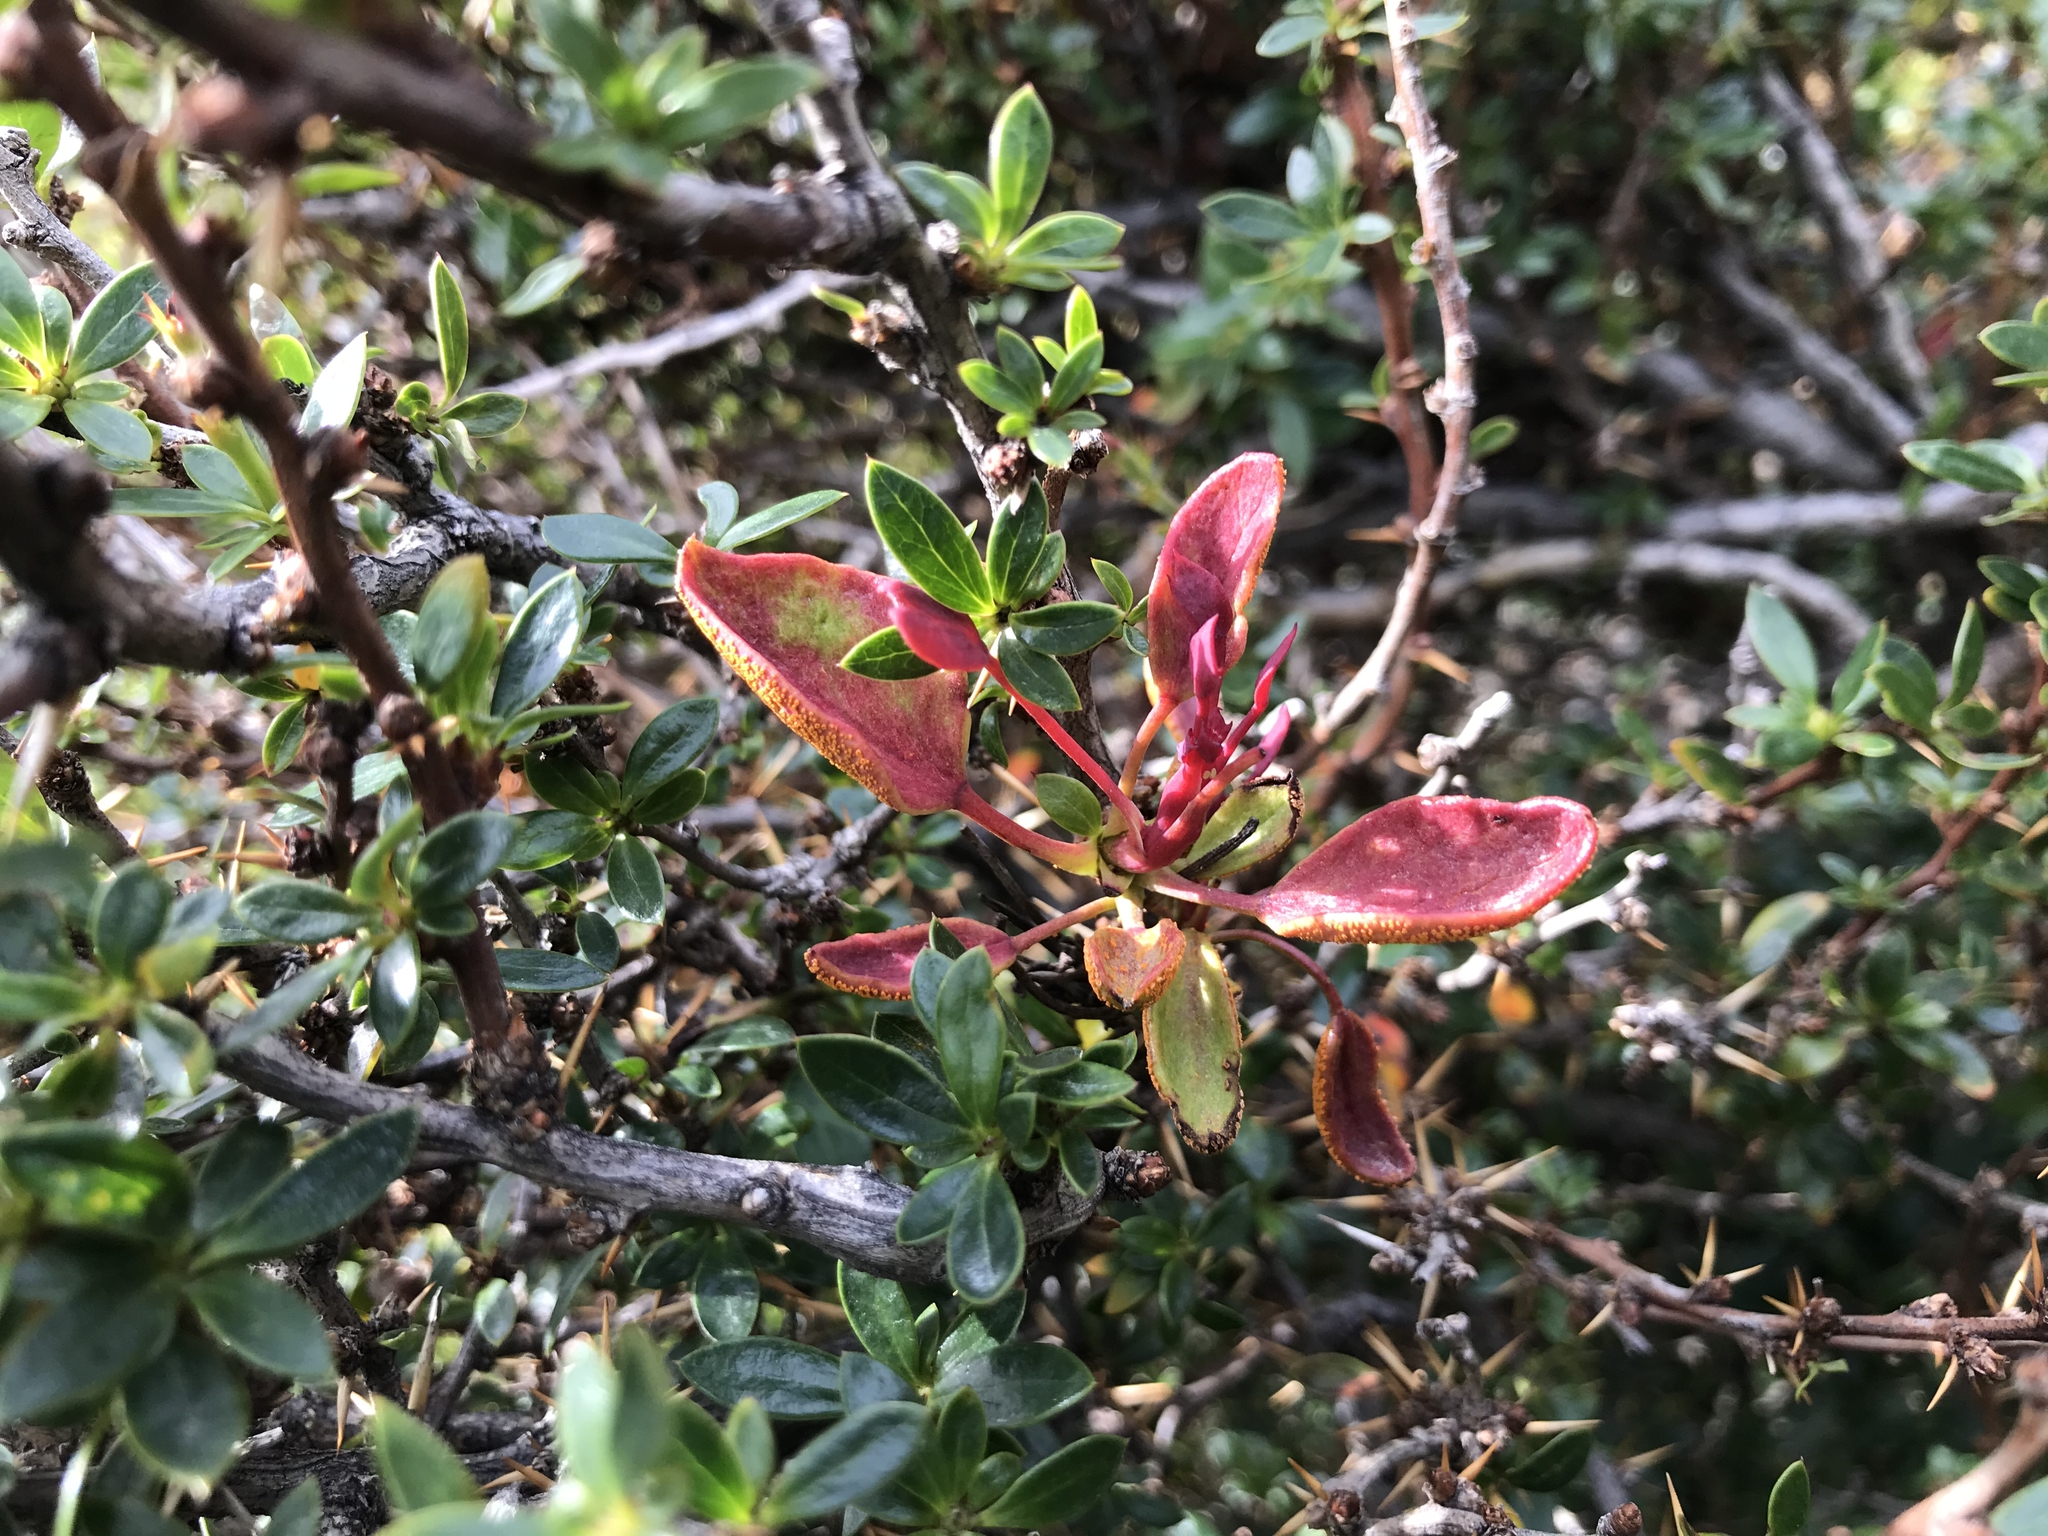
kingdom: Plantae
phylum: Tracheophyta
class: Magnoliopsida
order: Ranunculales
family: Berberidaceae
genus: Berberis
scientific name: Berberis microphylla
